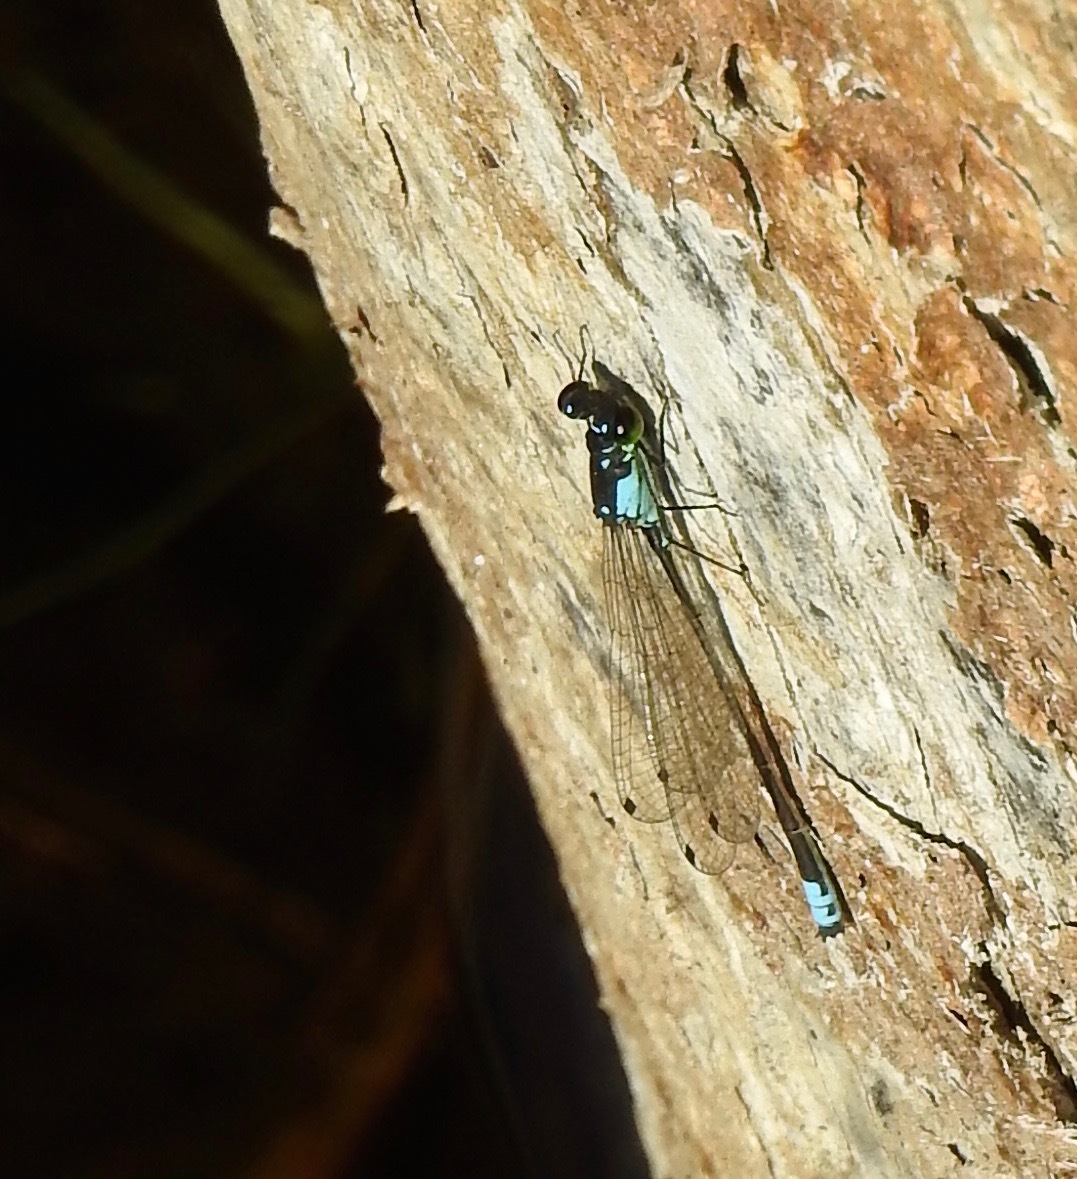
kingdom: Animalia
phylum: Arthropoda
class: Insecta
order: Odonata
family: Coenagrionidae
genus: Ischnura
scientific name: Ischnura cervula
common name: Pacific forktail
